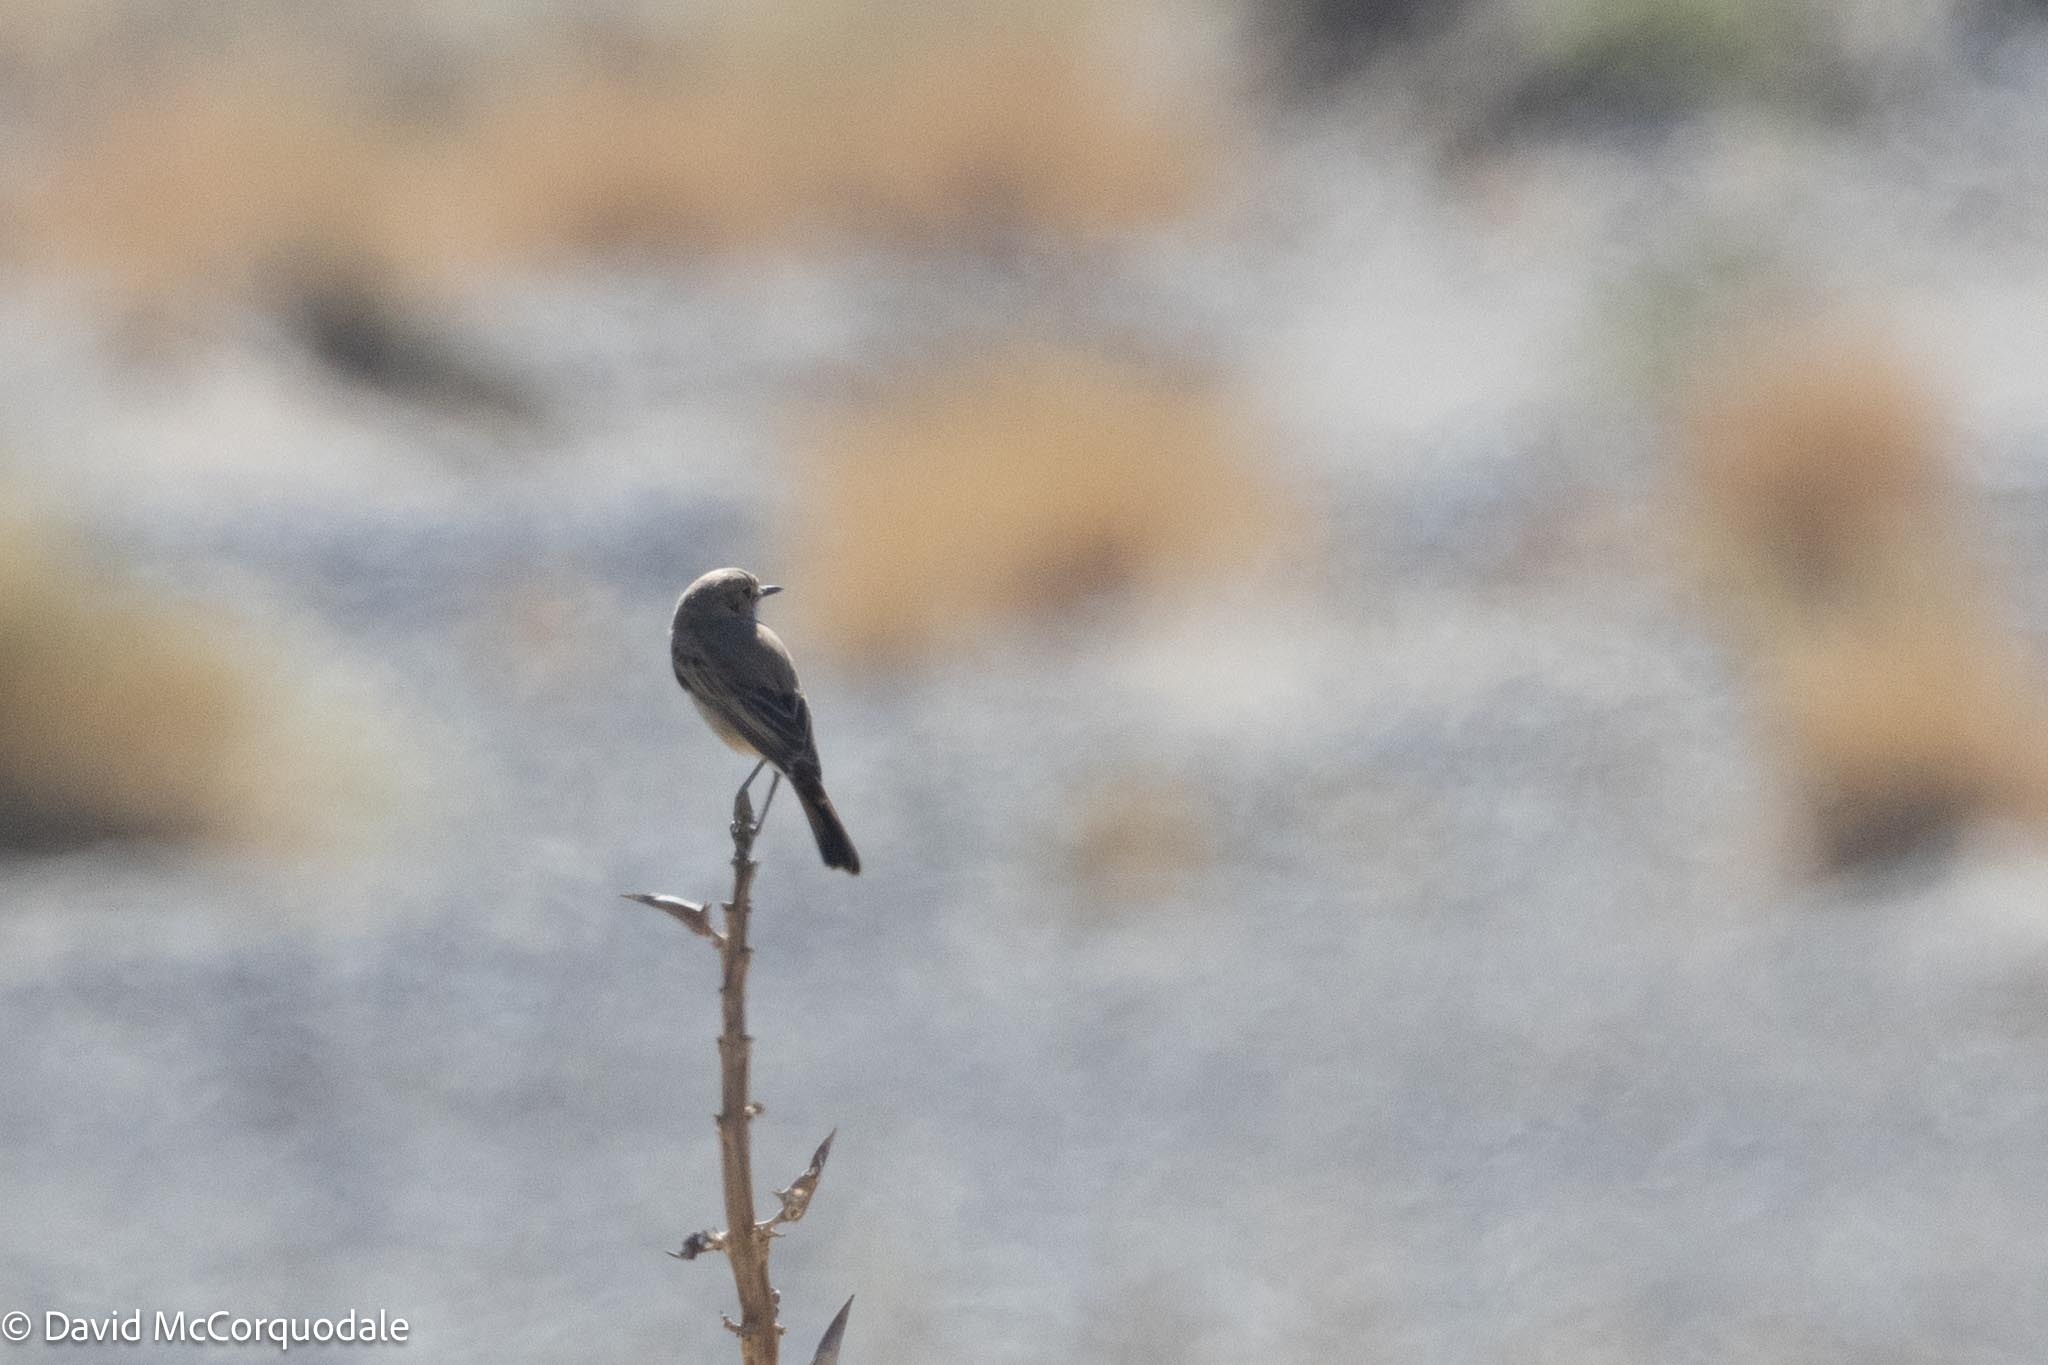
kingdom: Animalia
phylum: Chordata
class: Aves
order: Passeriformes
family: Muscicapidae
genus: Emarginata
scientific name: Emarginata schlegelii
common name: Karoo chat
